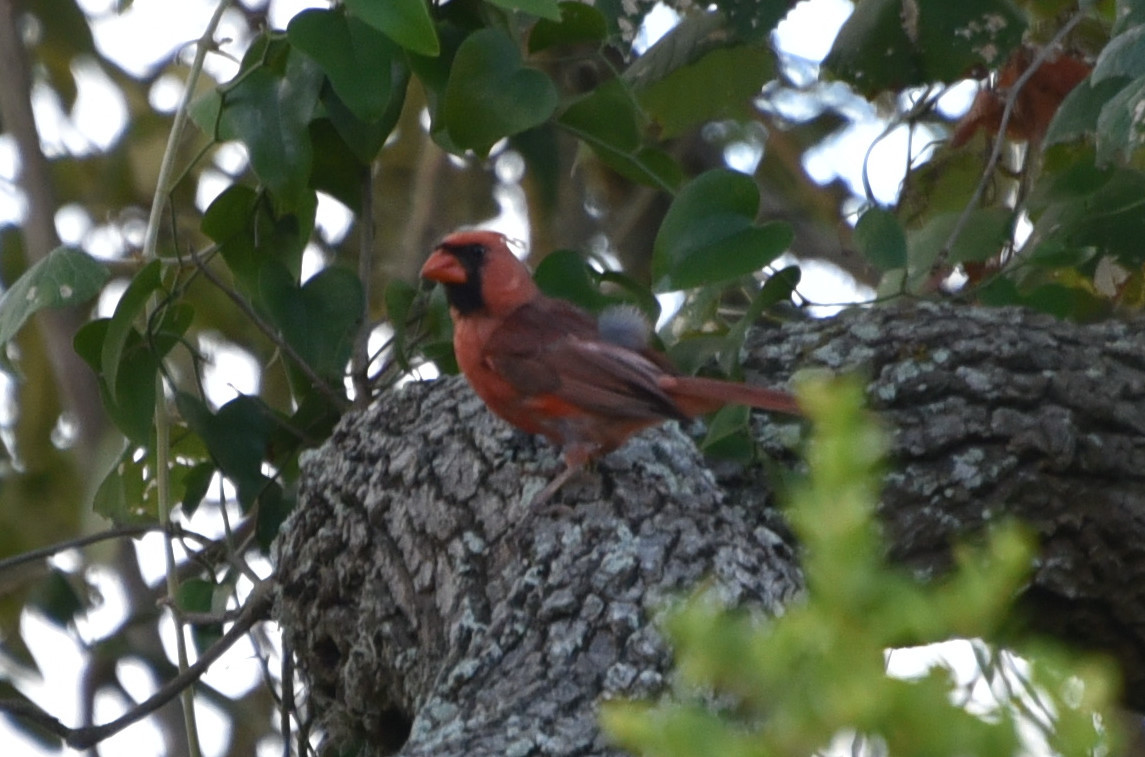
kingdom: Animalia
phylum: Chordata
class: Aves
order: Passeriformes
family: Cardinalidae
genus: Cardinalis
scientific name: Cardinalis cardinalis
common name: Northern cardinal
